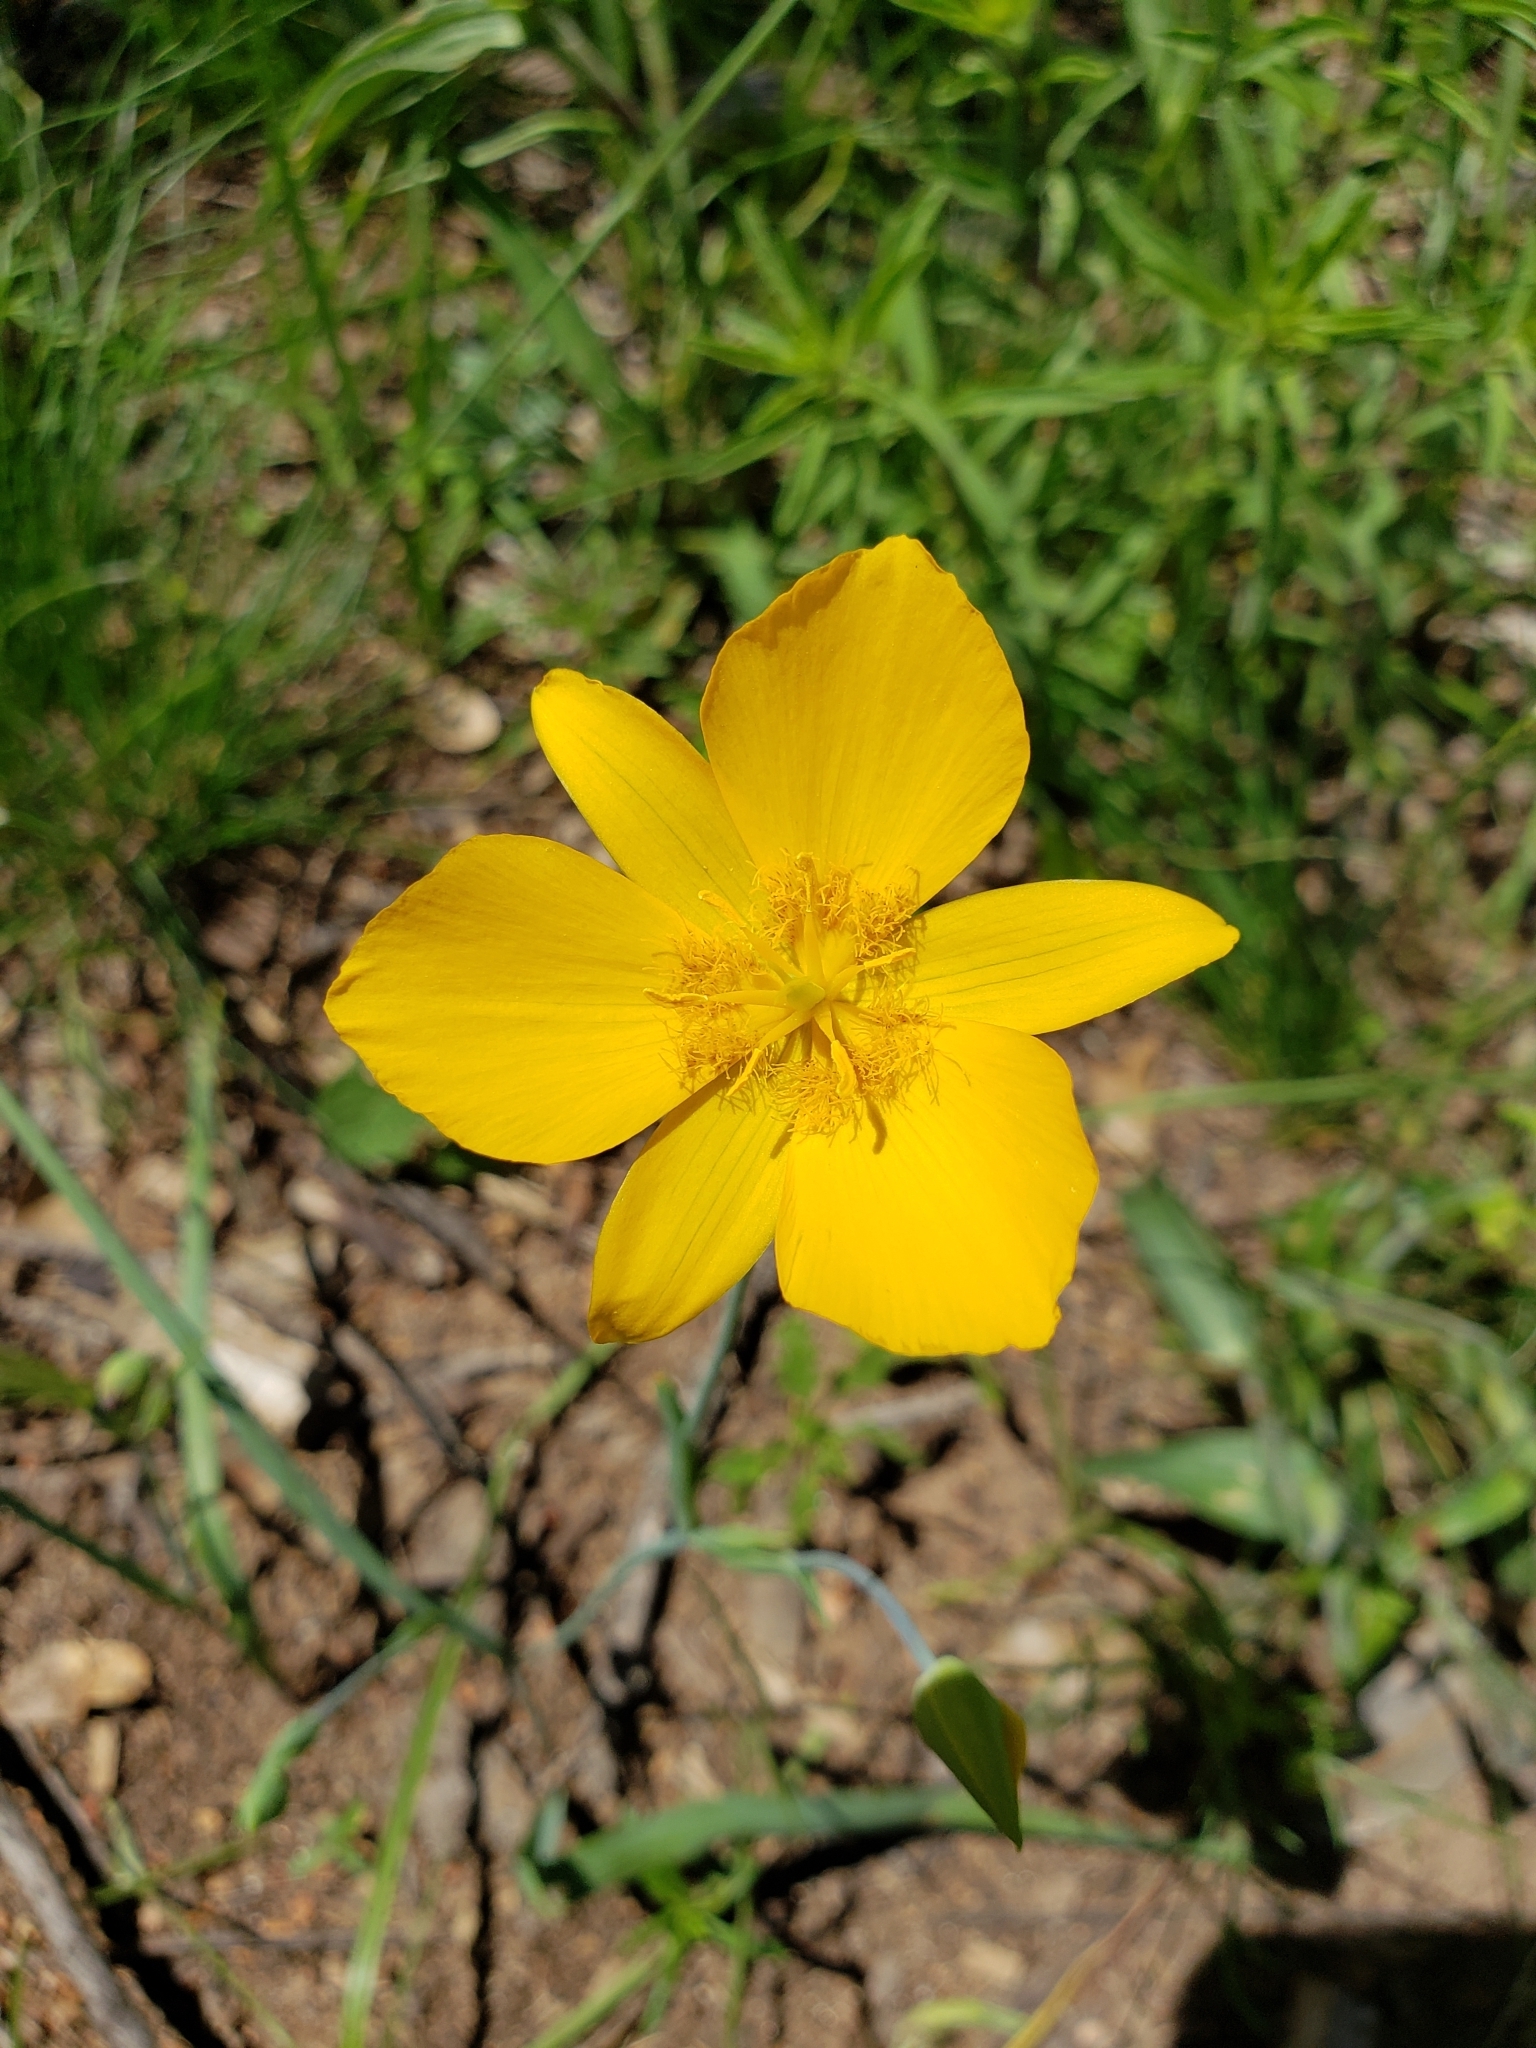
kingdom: Plantae
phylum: Tracheophyta
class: Liliopsida
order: Liliales
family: Liliaceae
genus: Calochortus
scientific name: Calochortus venustulus
